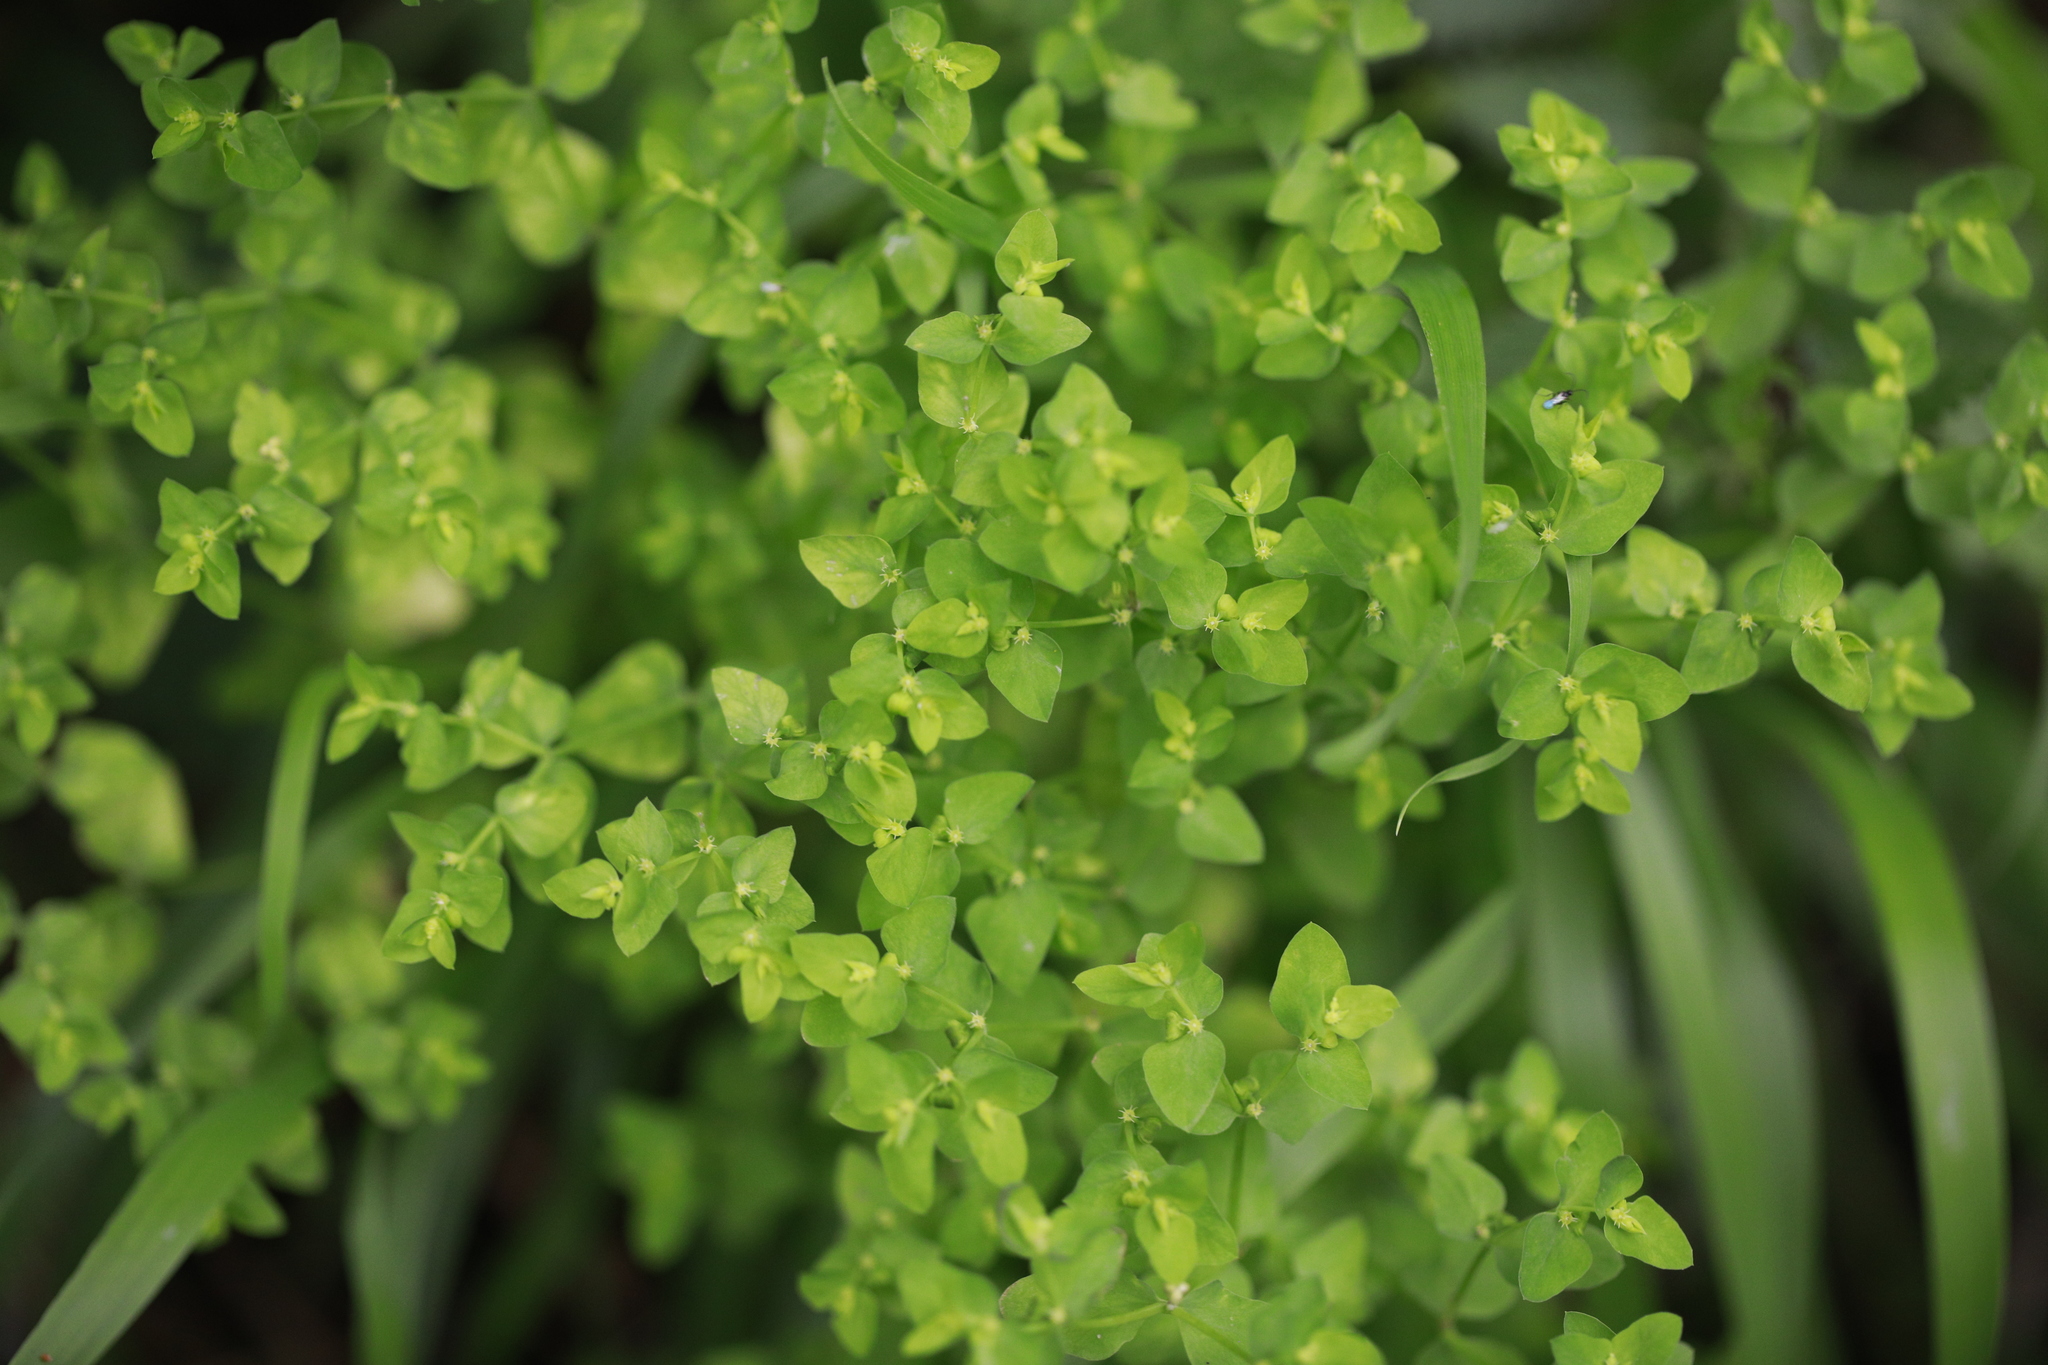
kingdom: Plantae
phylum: Tracheophyta
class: Magnoliopsida
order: Malpighiales
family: Euphorbiaceae
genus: Euphorbia
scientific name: Euphorbia peplus
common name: Petty spurge
